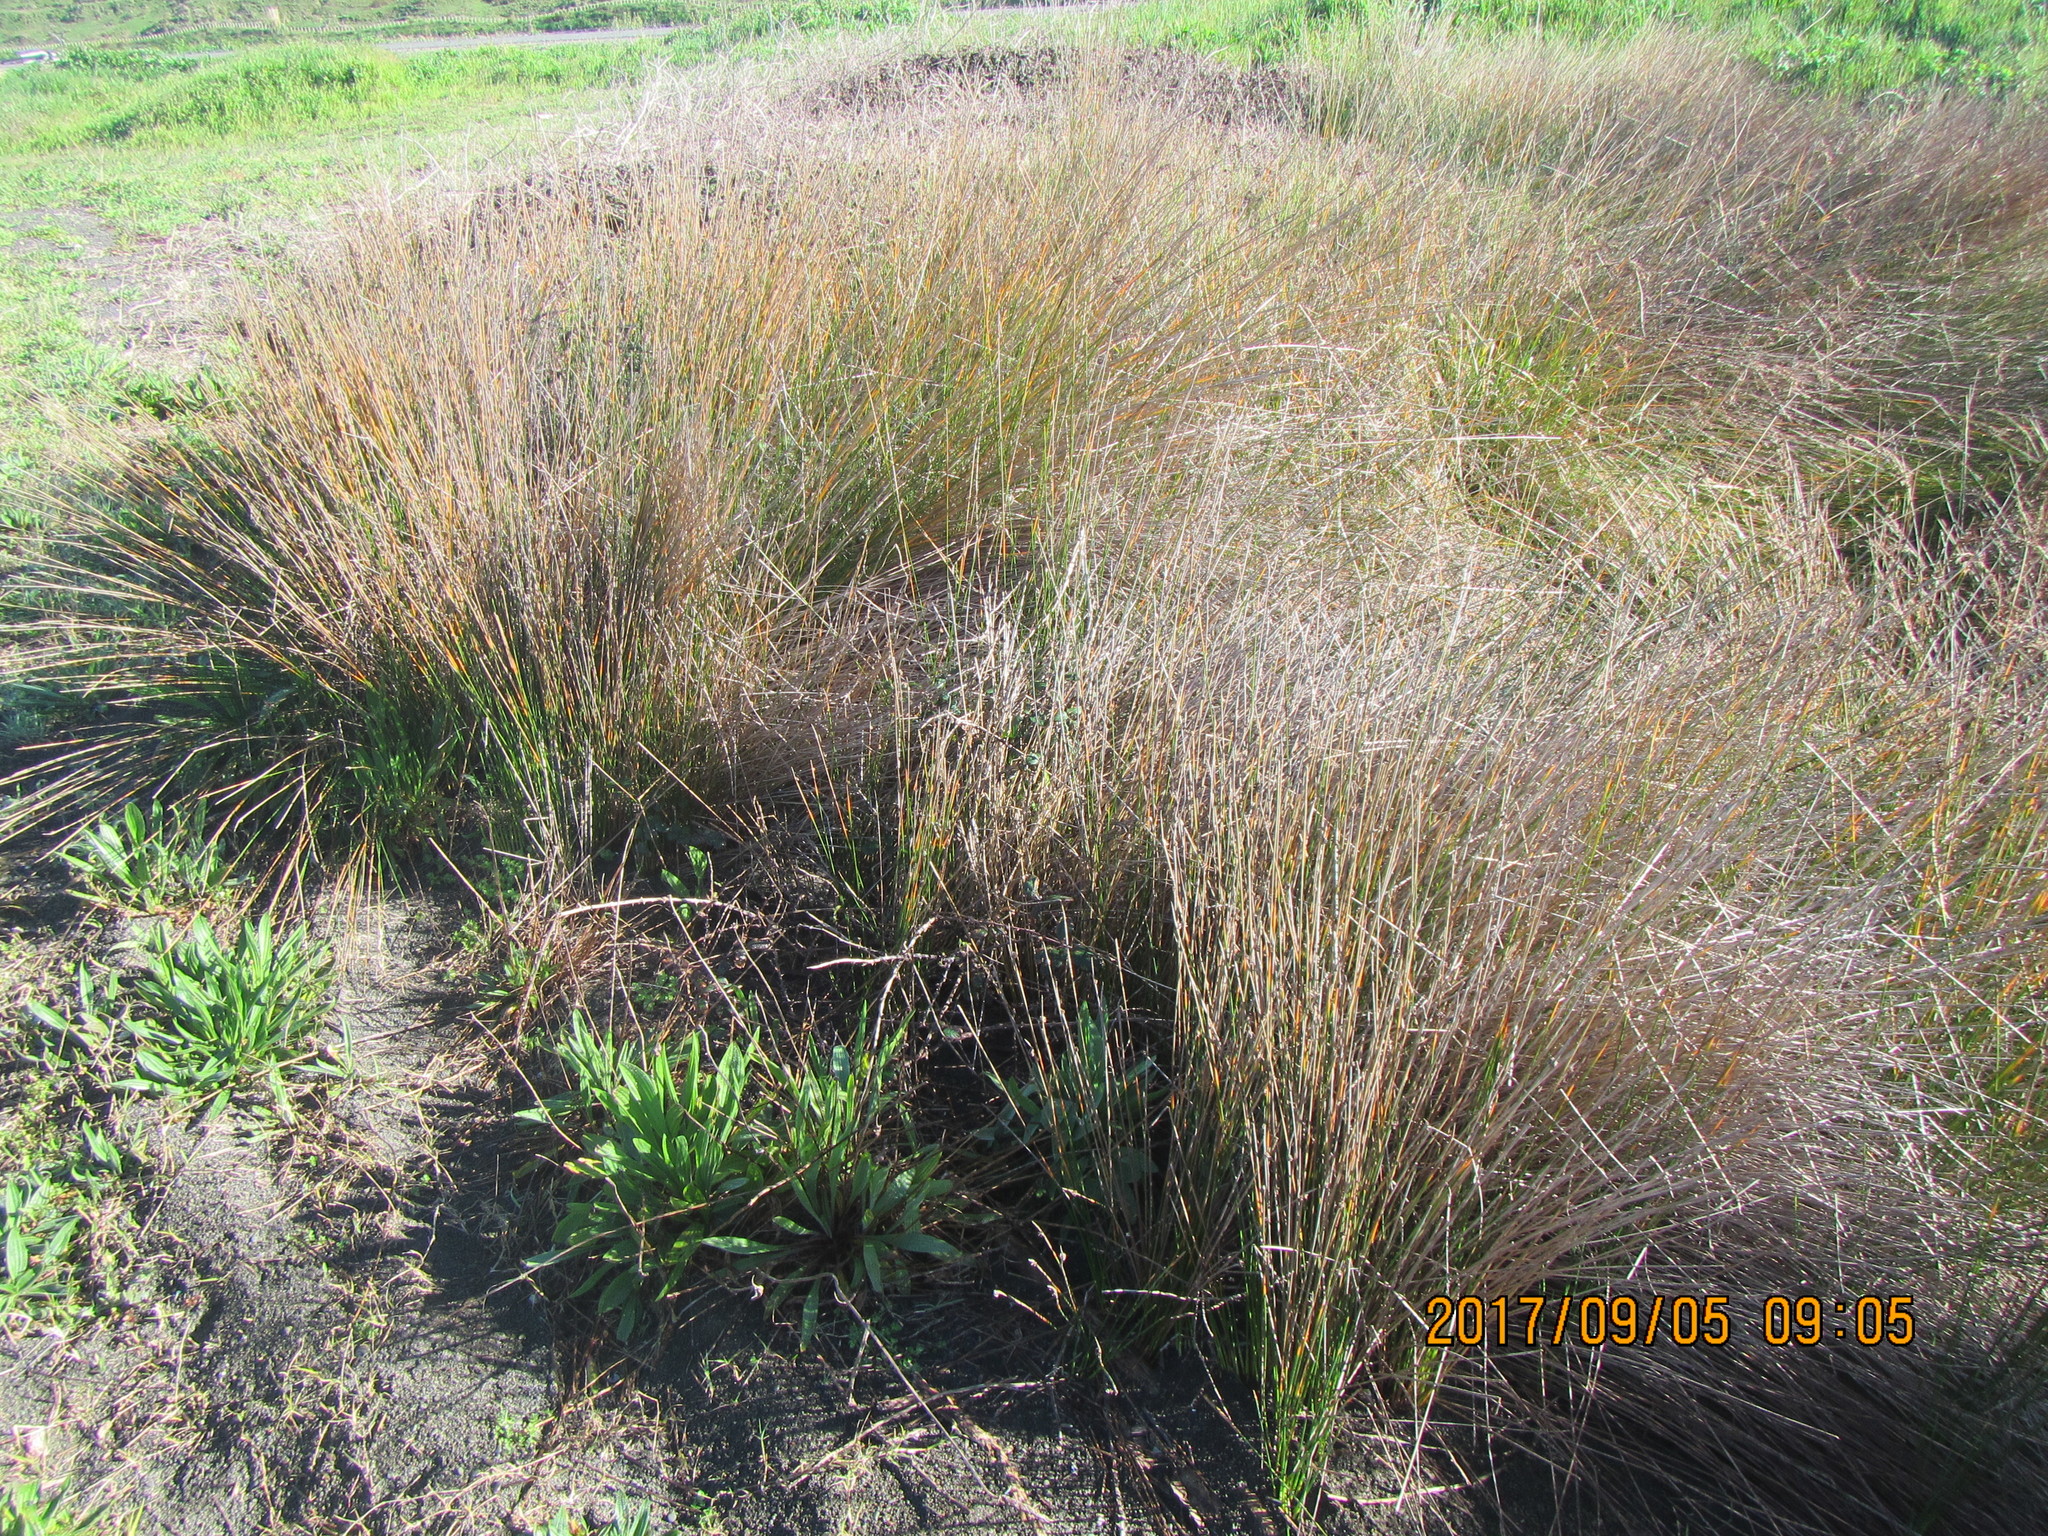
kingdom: Plantae
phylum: Tracheophyta
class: Liliopsida
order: Poales
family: Cyperaceae
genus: Ficinia
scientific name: Ficinia nodosa
